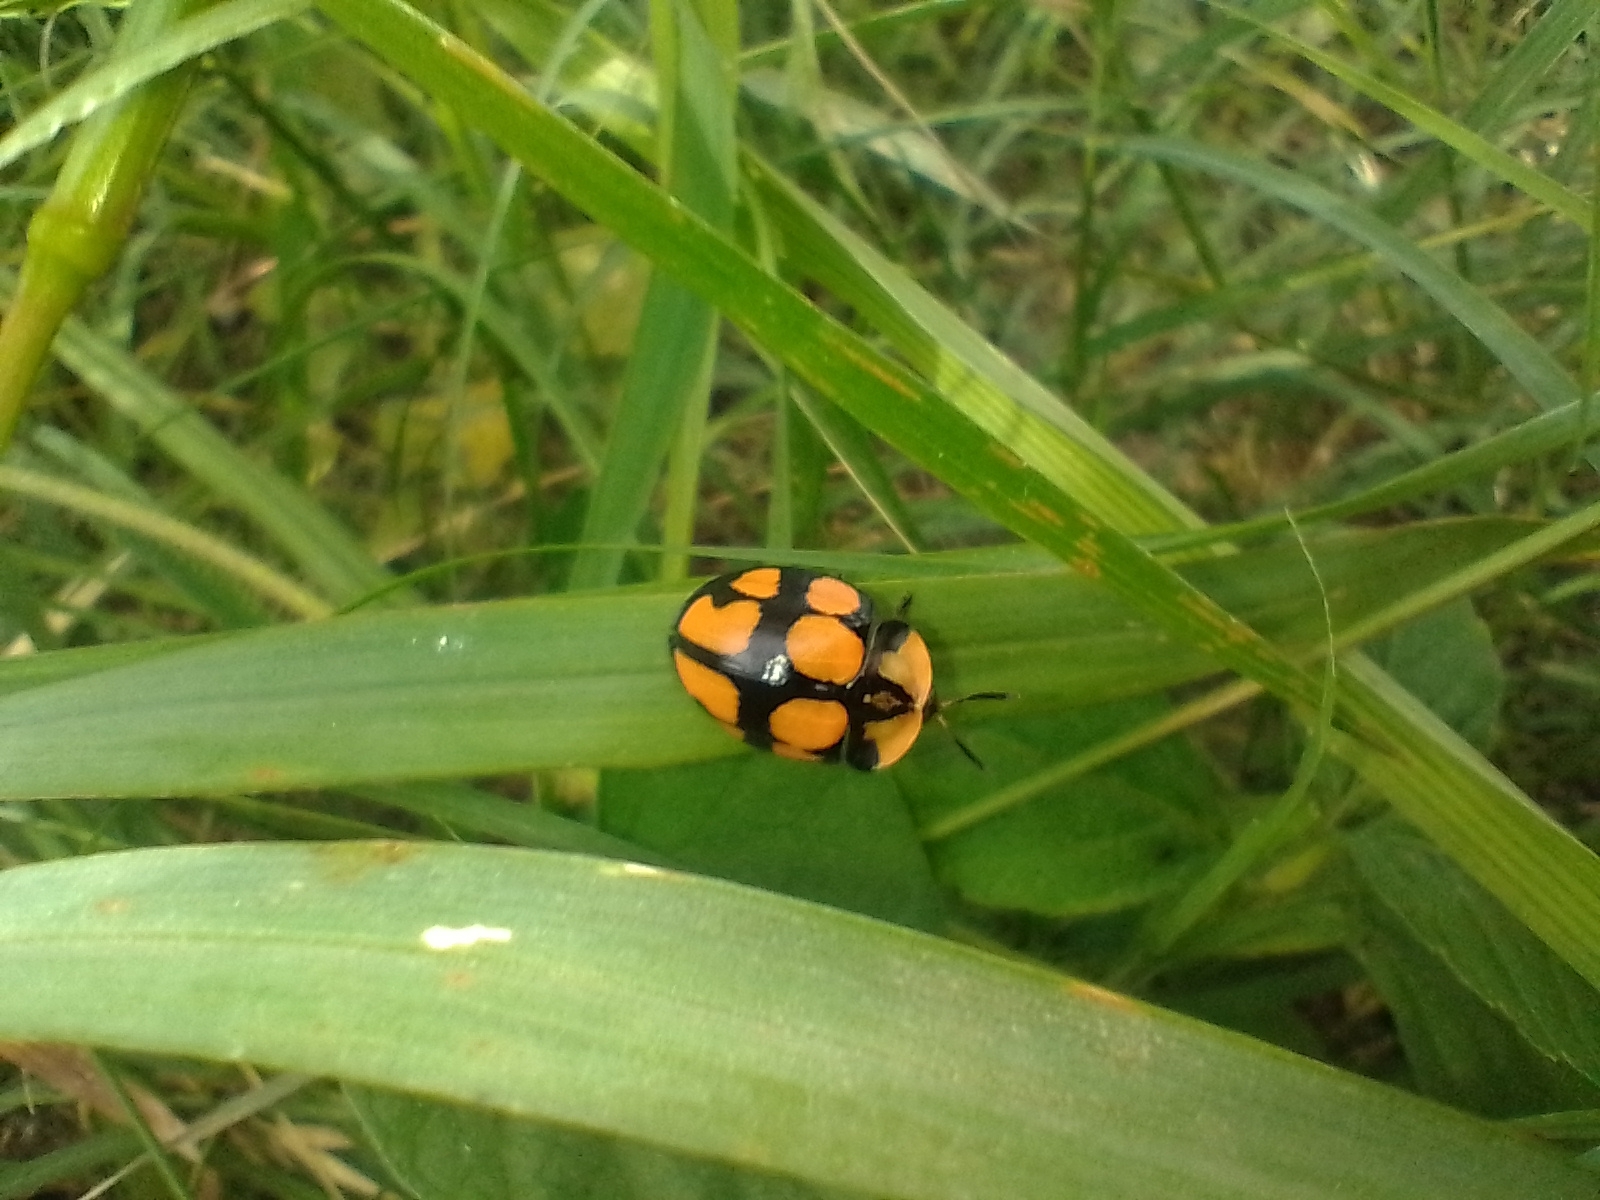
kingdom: Animalia
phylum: Arthropoda
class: Insecta
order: Coleoptera
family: Chrysomelidae
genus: Botanochara
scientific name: Botanochara octoplagiata
